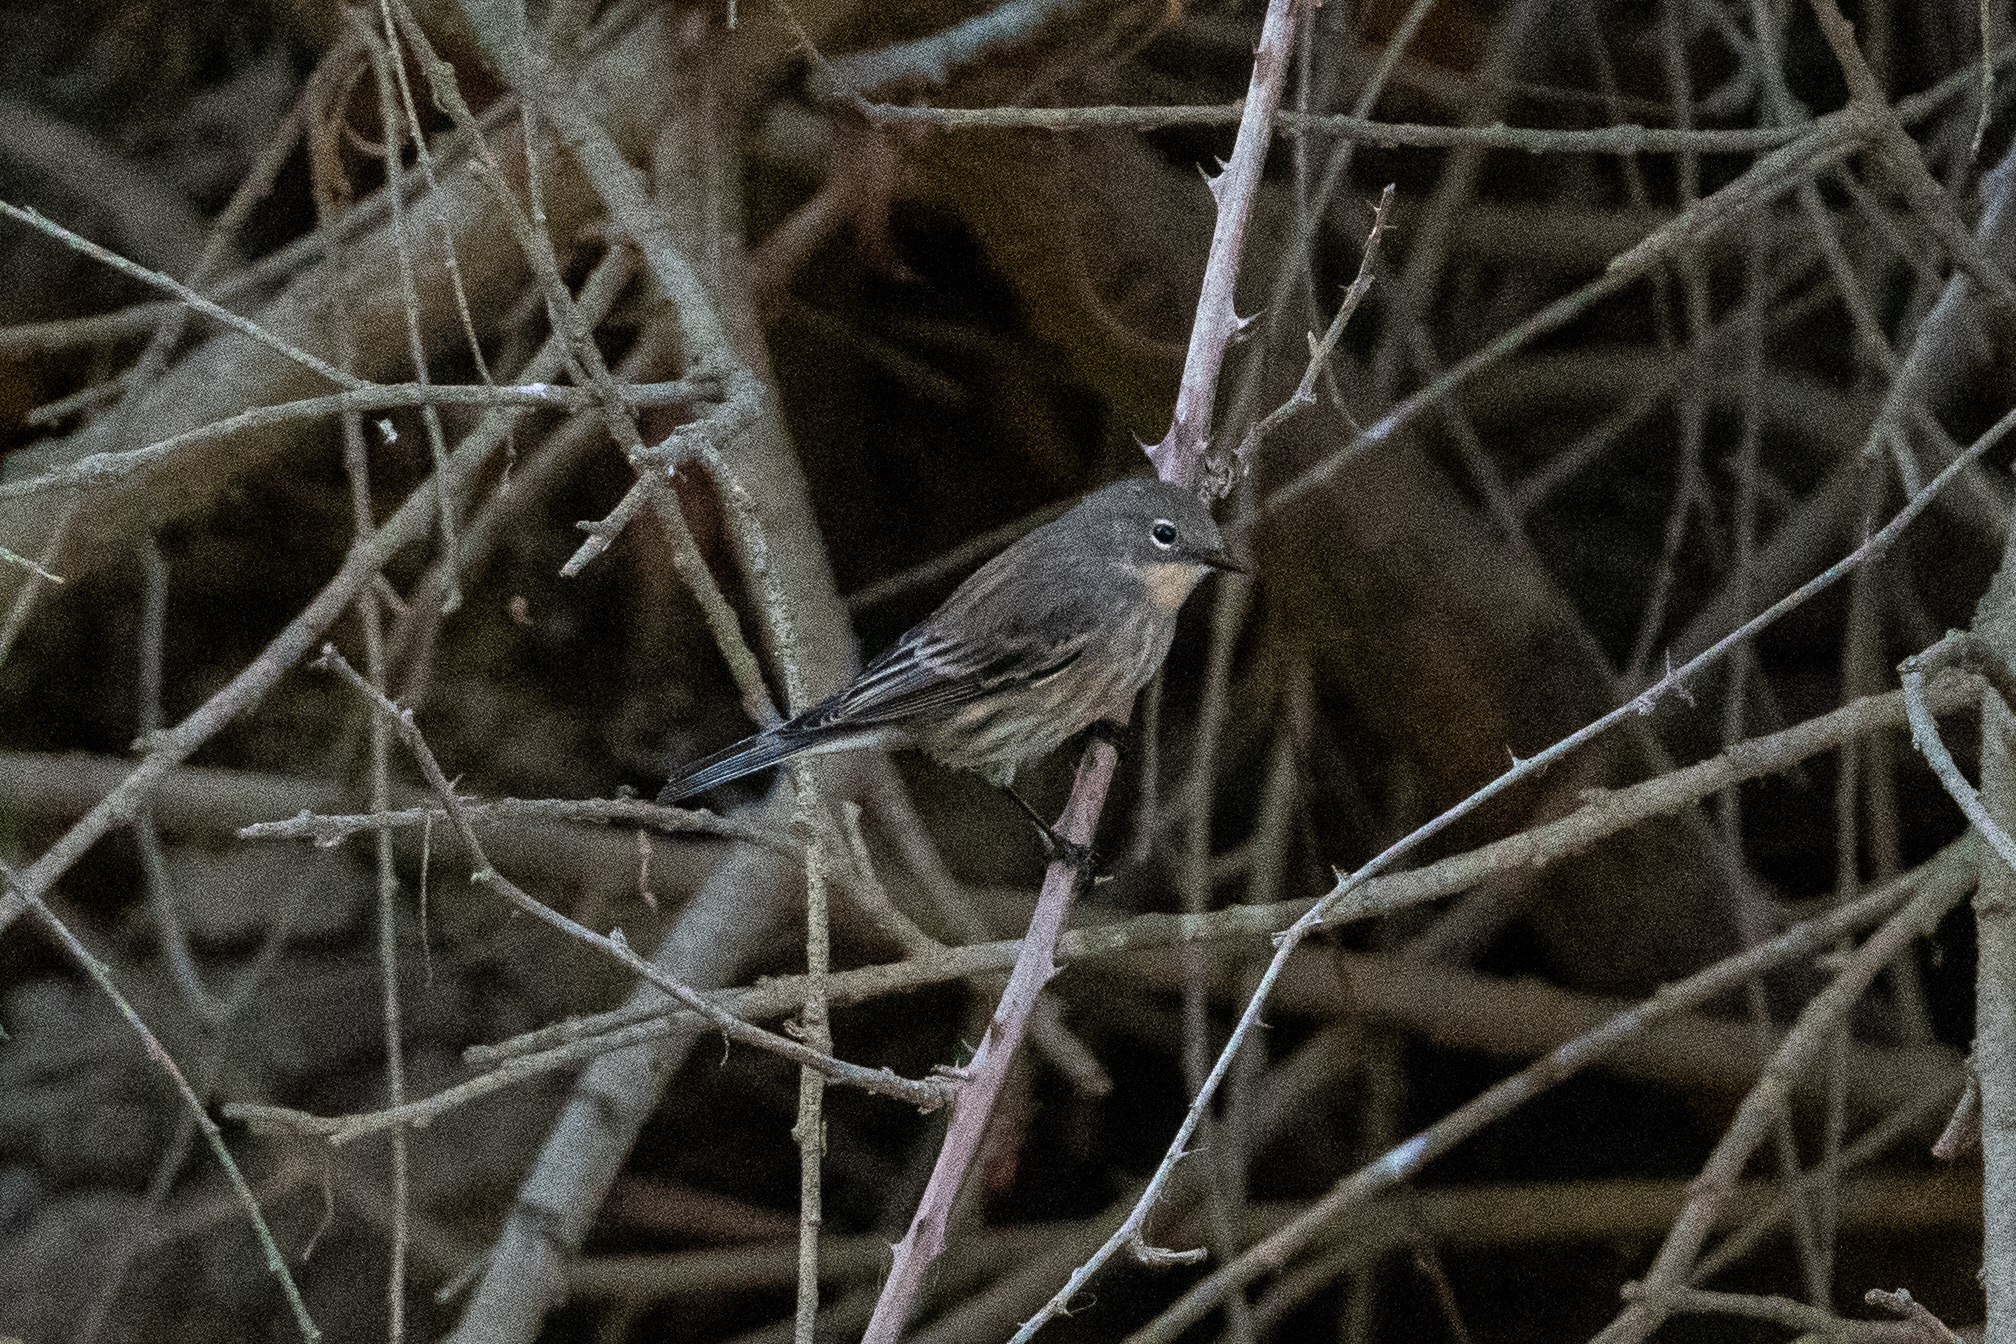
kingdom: Animalia
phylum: Chordata
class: Aves
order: Passeriformes
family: Parulidae
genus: Setophaga
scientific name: Setophaga coronata
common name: Myrtle warbler
